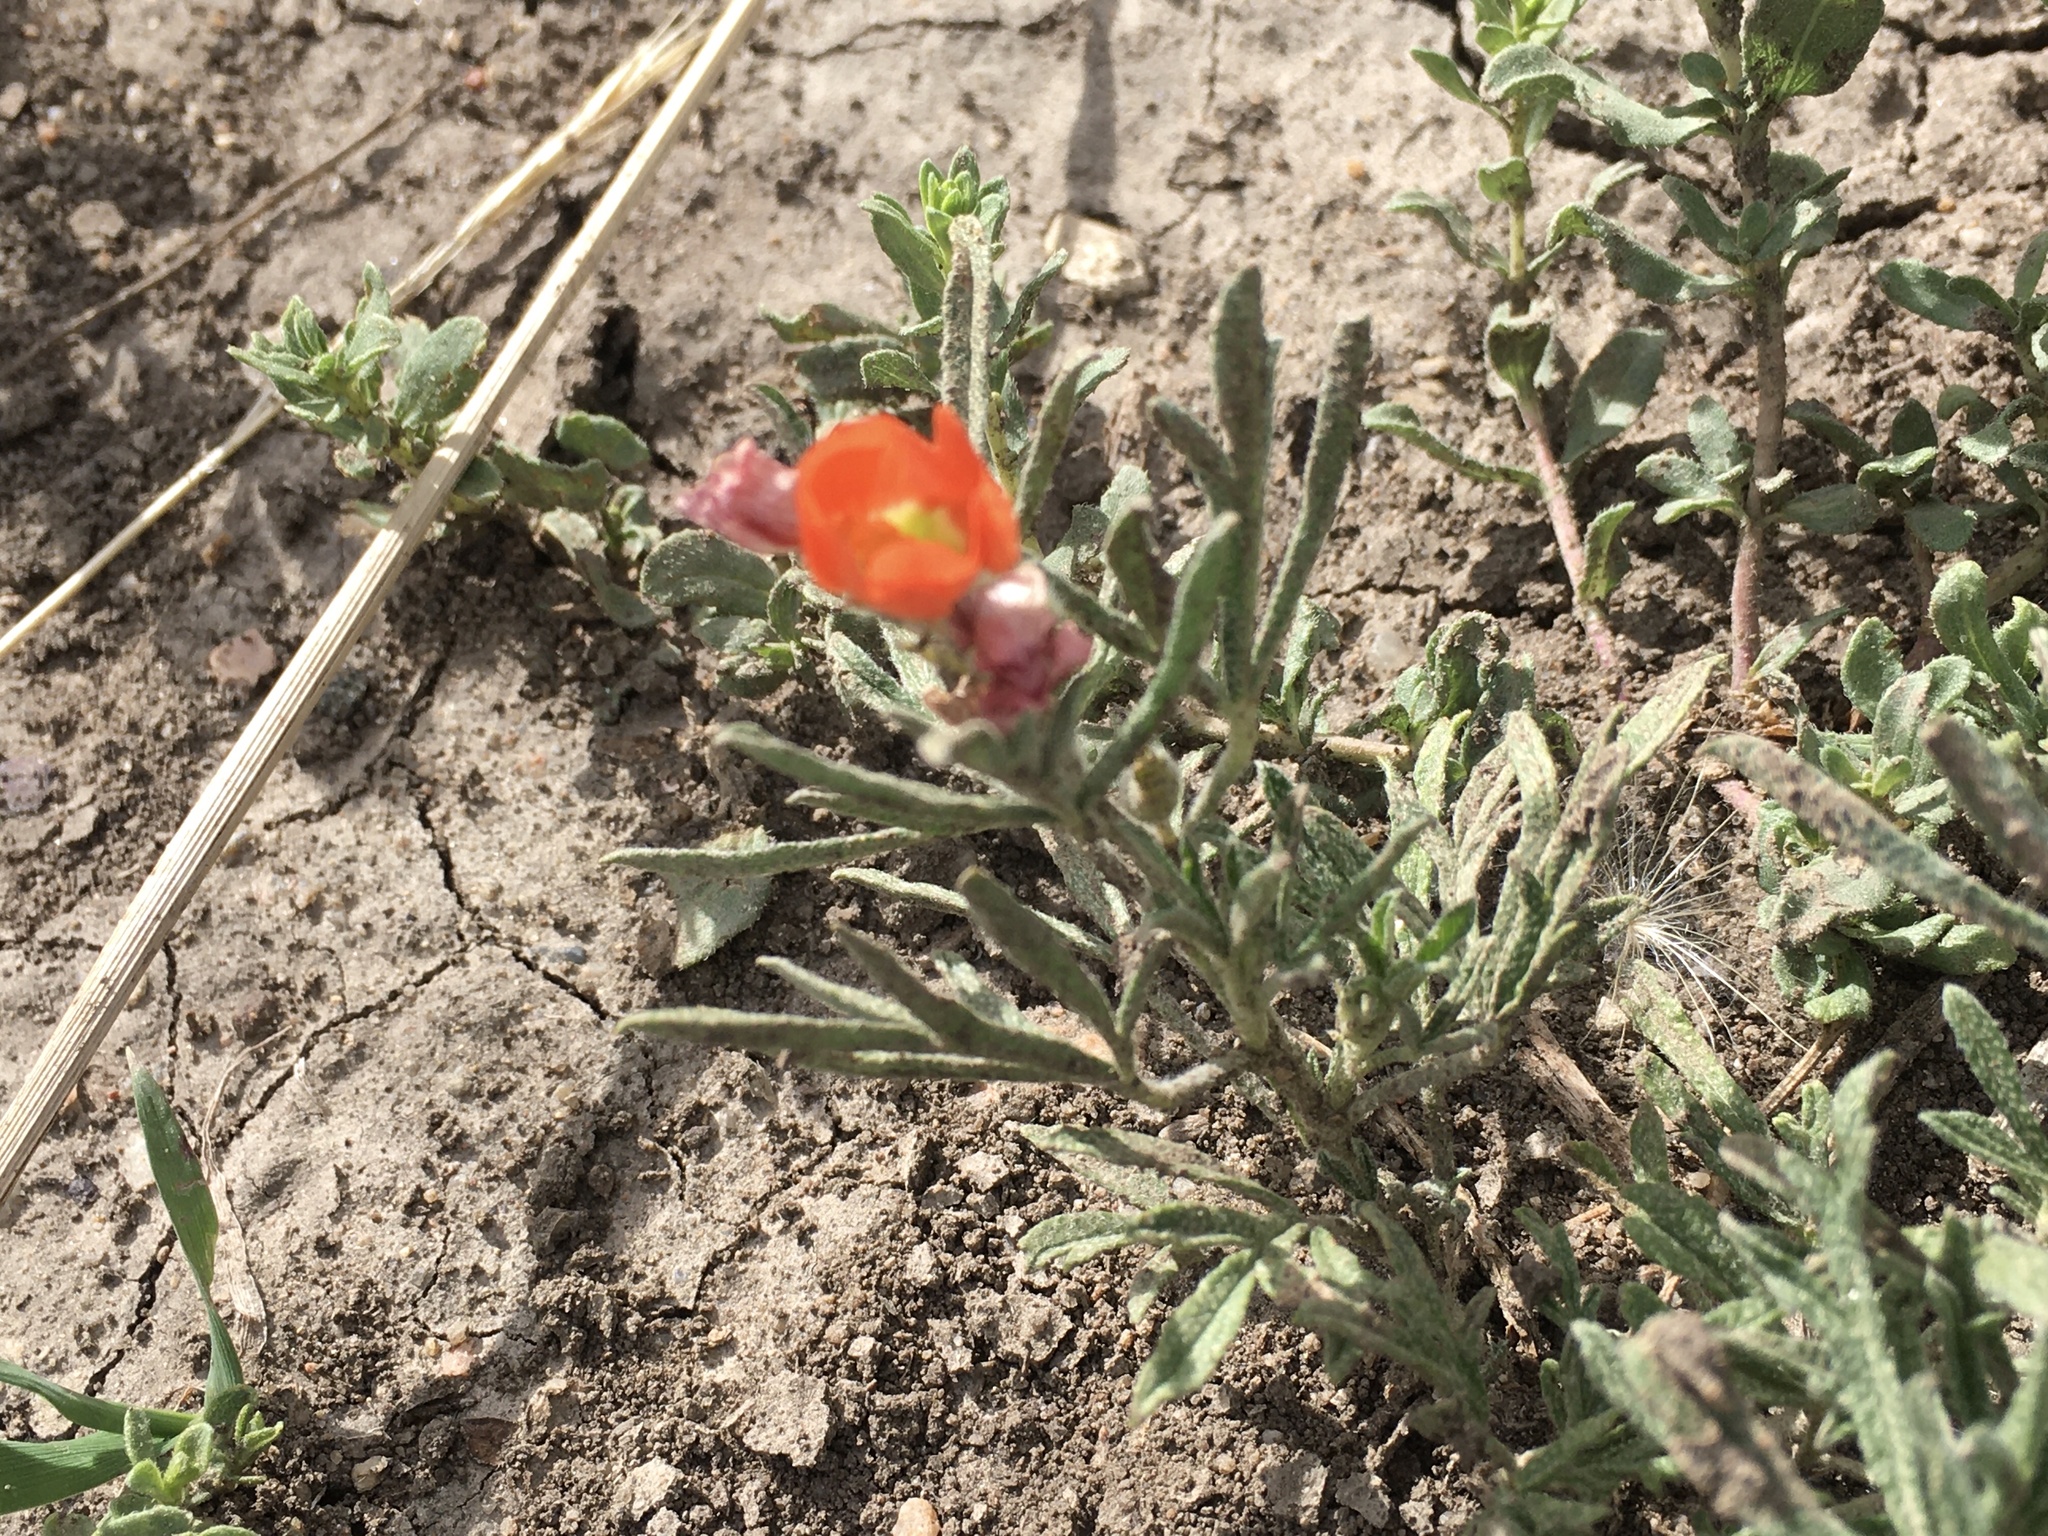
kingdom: Plantae
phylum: Tracheophyta
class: Magnoliopsida
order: Malvales
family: Malvaceae
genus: Sphaeralcea
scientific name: Sphaeralcea coccinea
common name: Moss-rose
